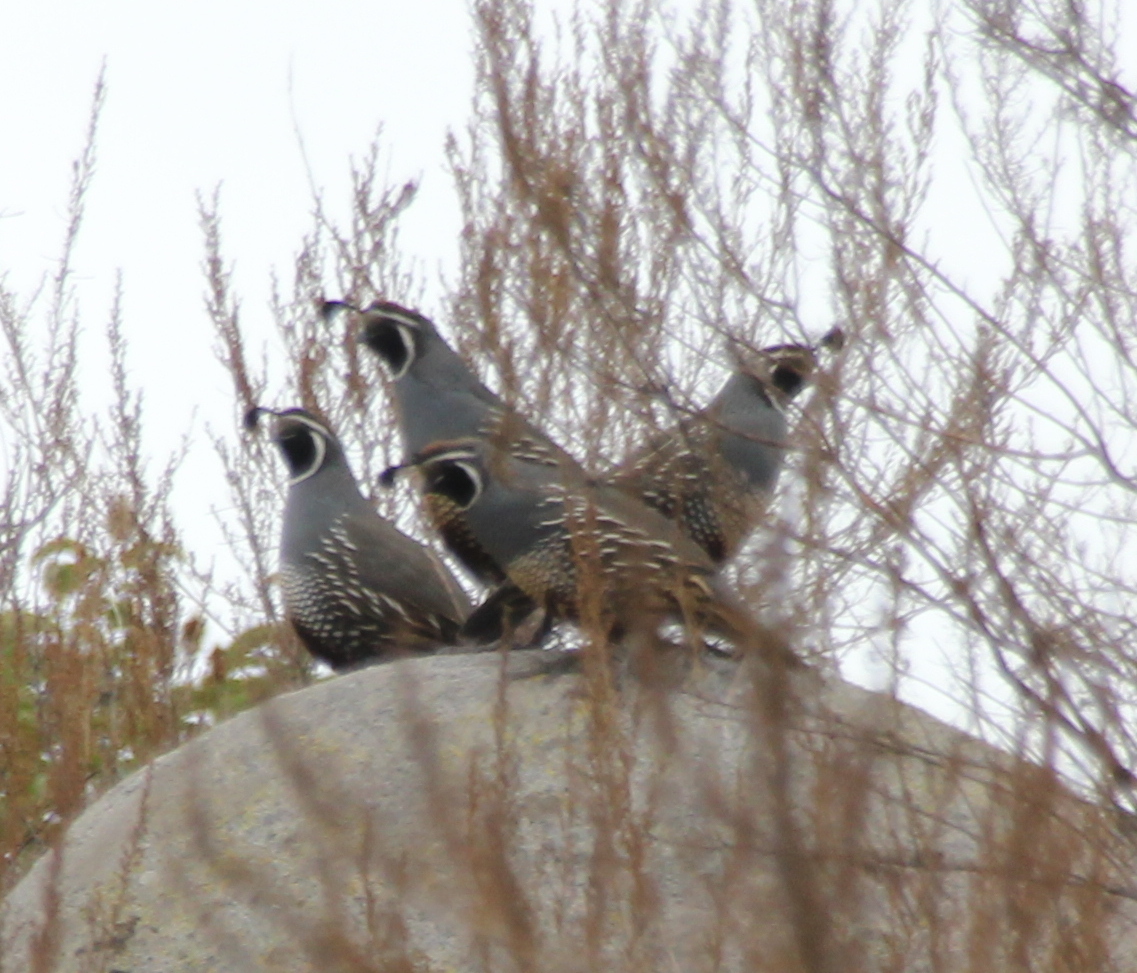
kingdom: Animalia
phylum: Chordata
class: Aves
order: Galliformes
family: Odontophoridae
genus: Callipepla
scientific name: Callipepla californica
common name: California quail
